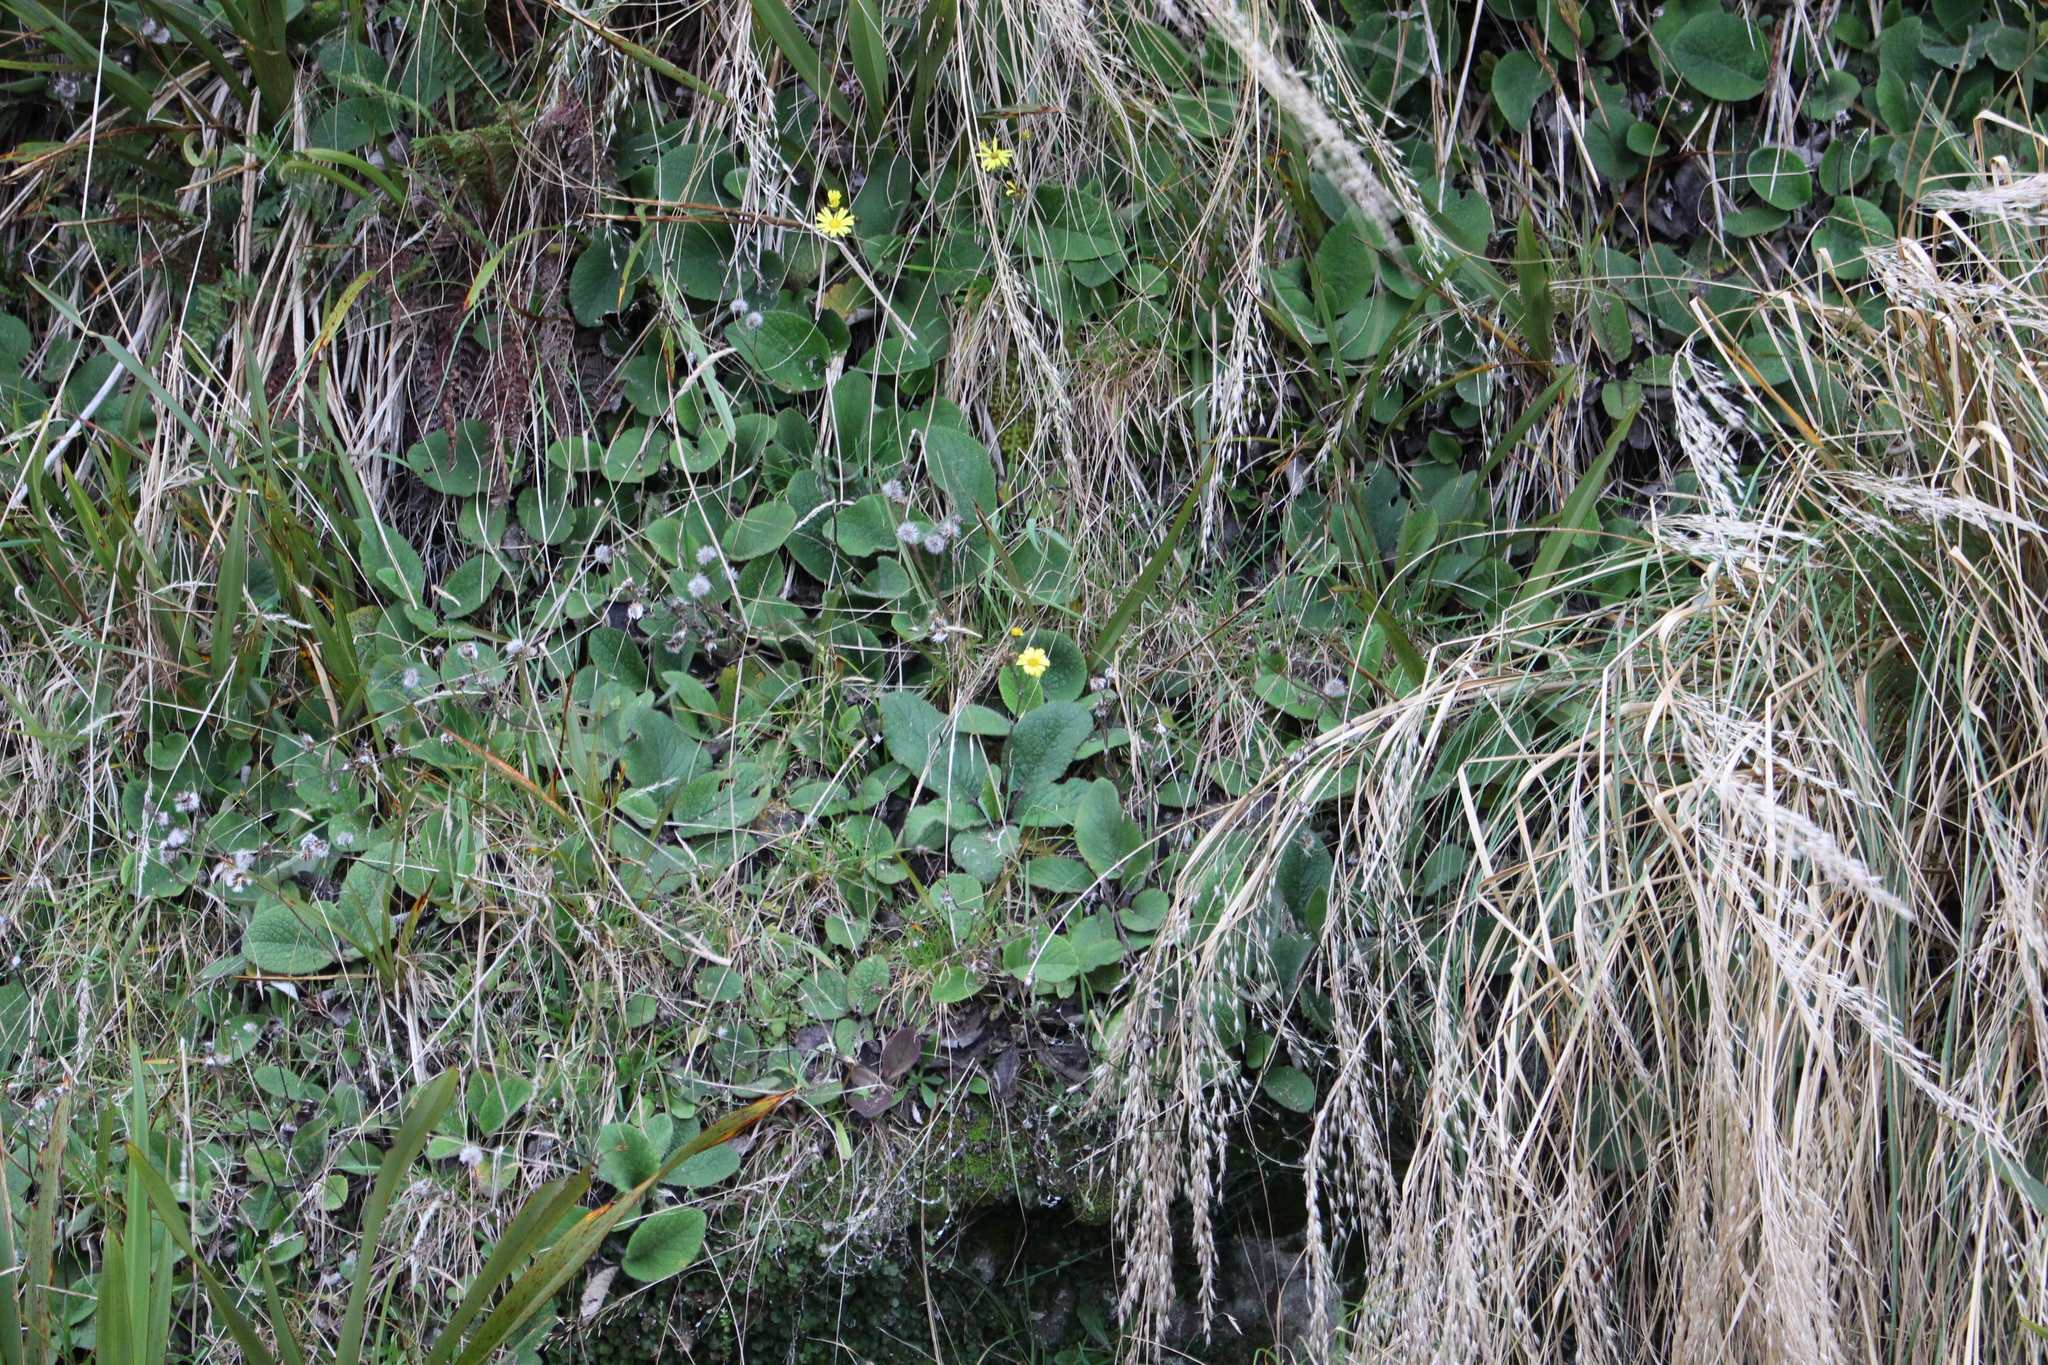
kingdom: Plantae
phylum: Tracheophyta
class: Magnoliopsida
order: Asterales
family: Asteraceae
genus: Brachyglottis
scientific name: Brachyglottis lagopus
